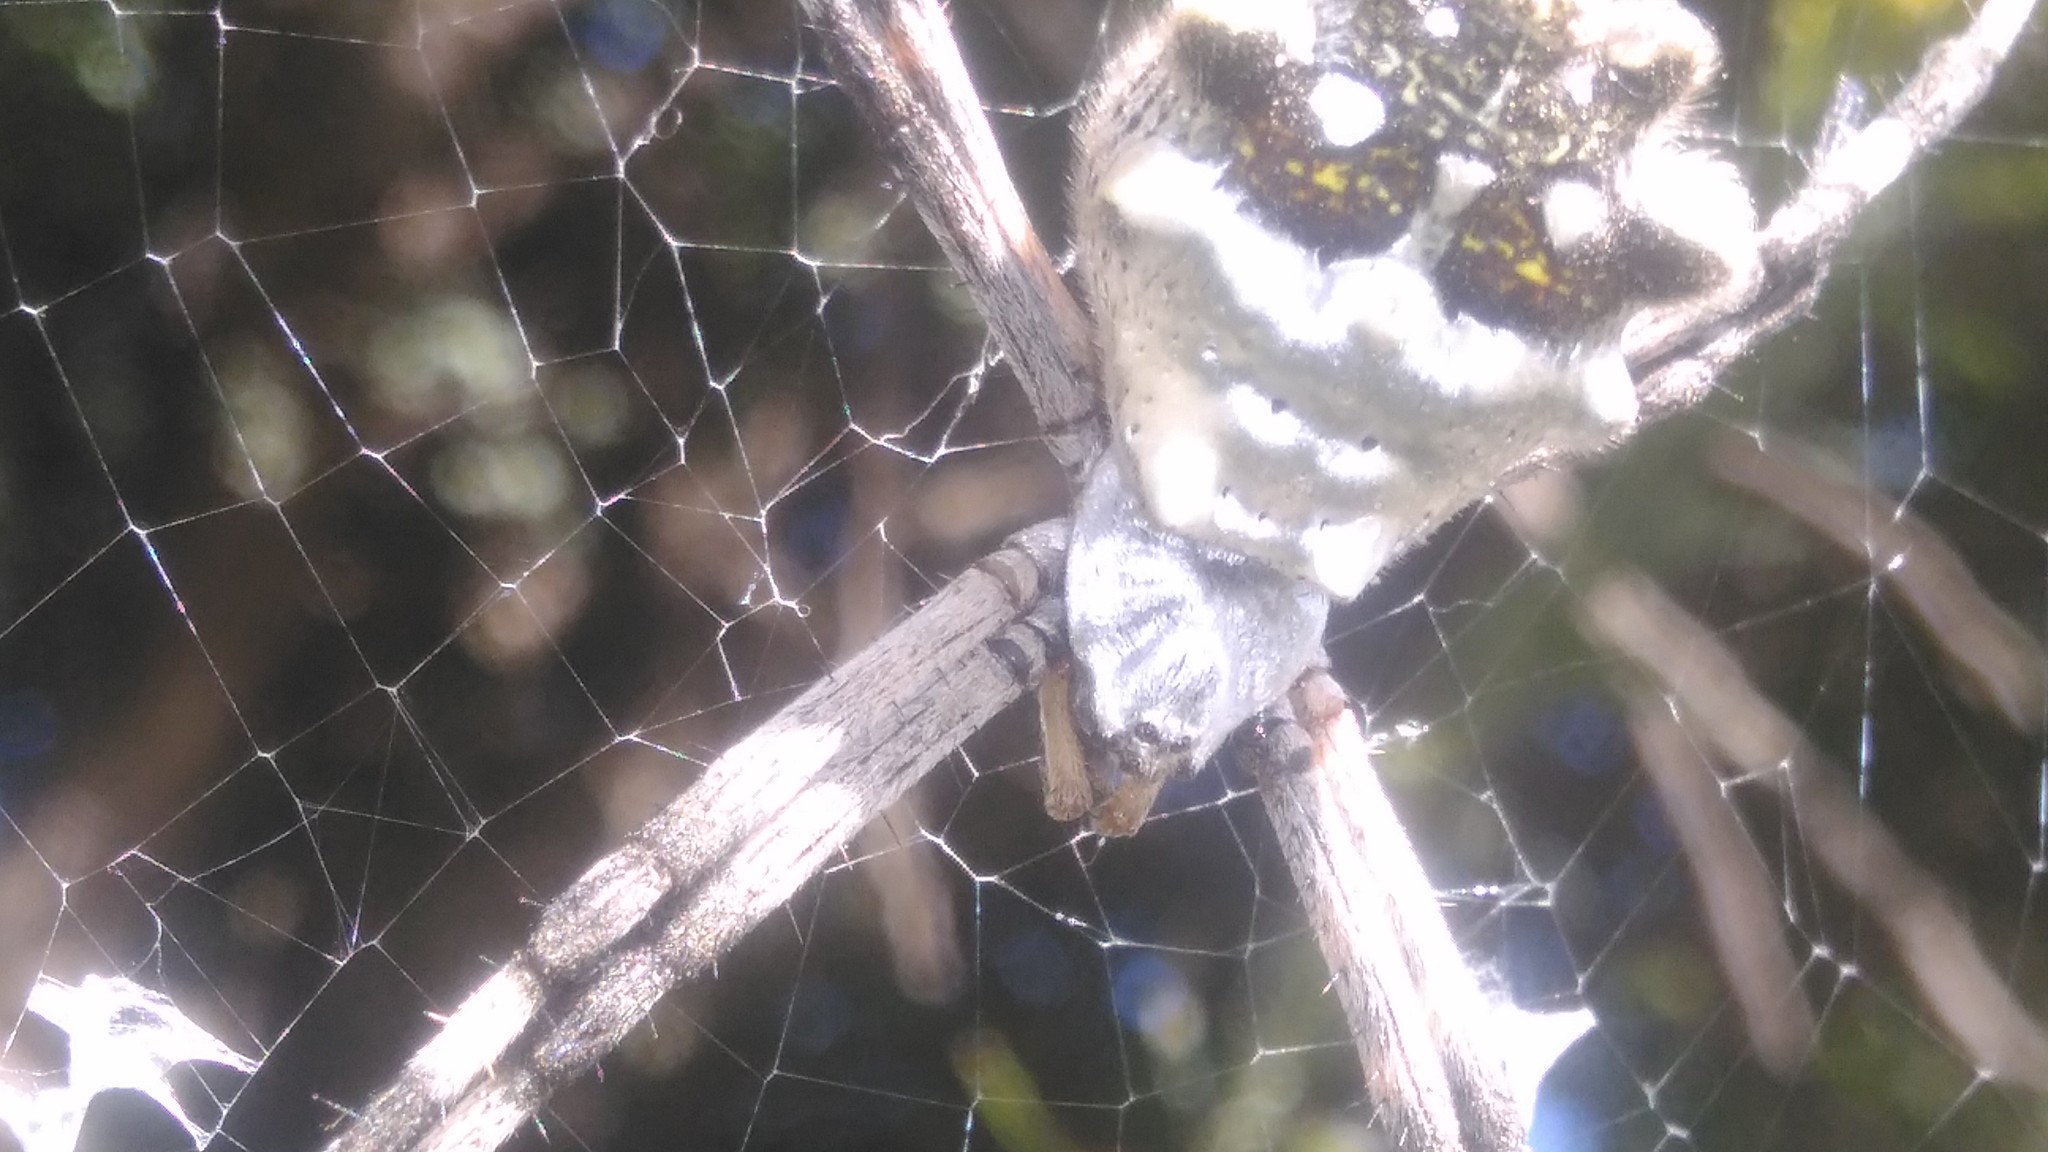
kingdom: Animalia
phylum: Arthropoda
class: Arachnida
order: Araneae
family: Araneidae
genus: Argiope
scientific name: Argiope argentata
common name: Orb weavers
